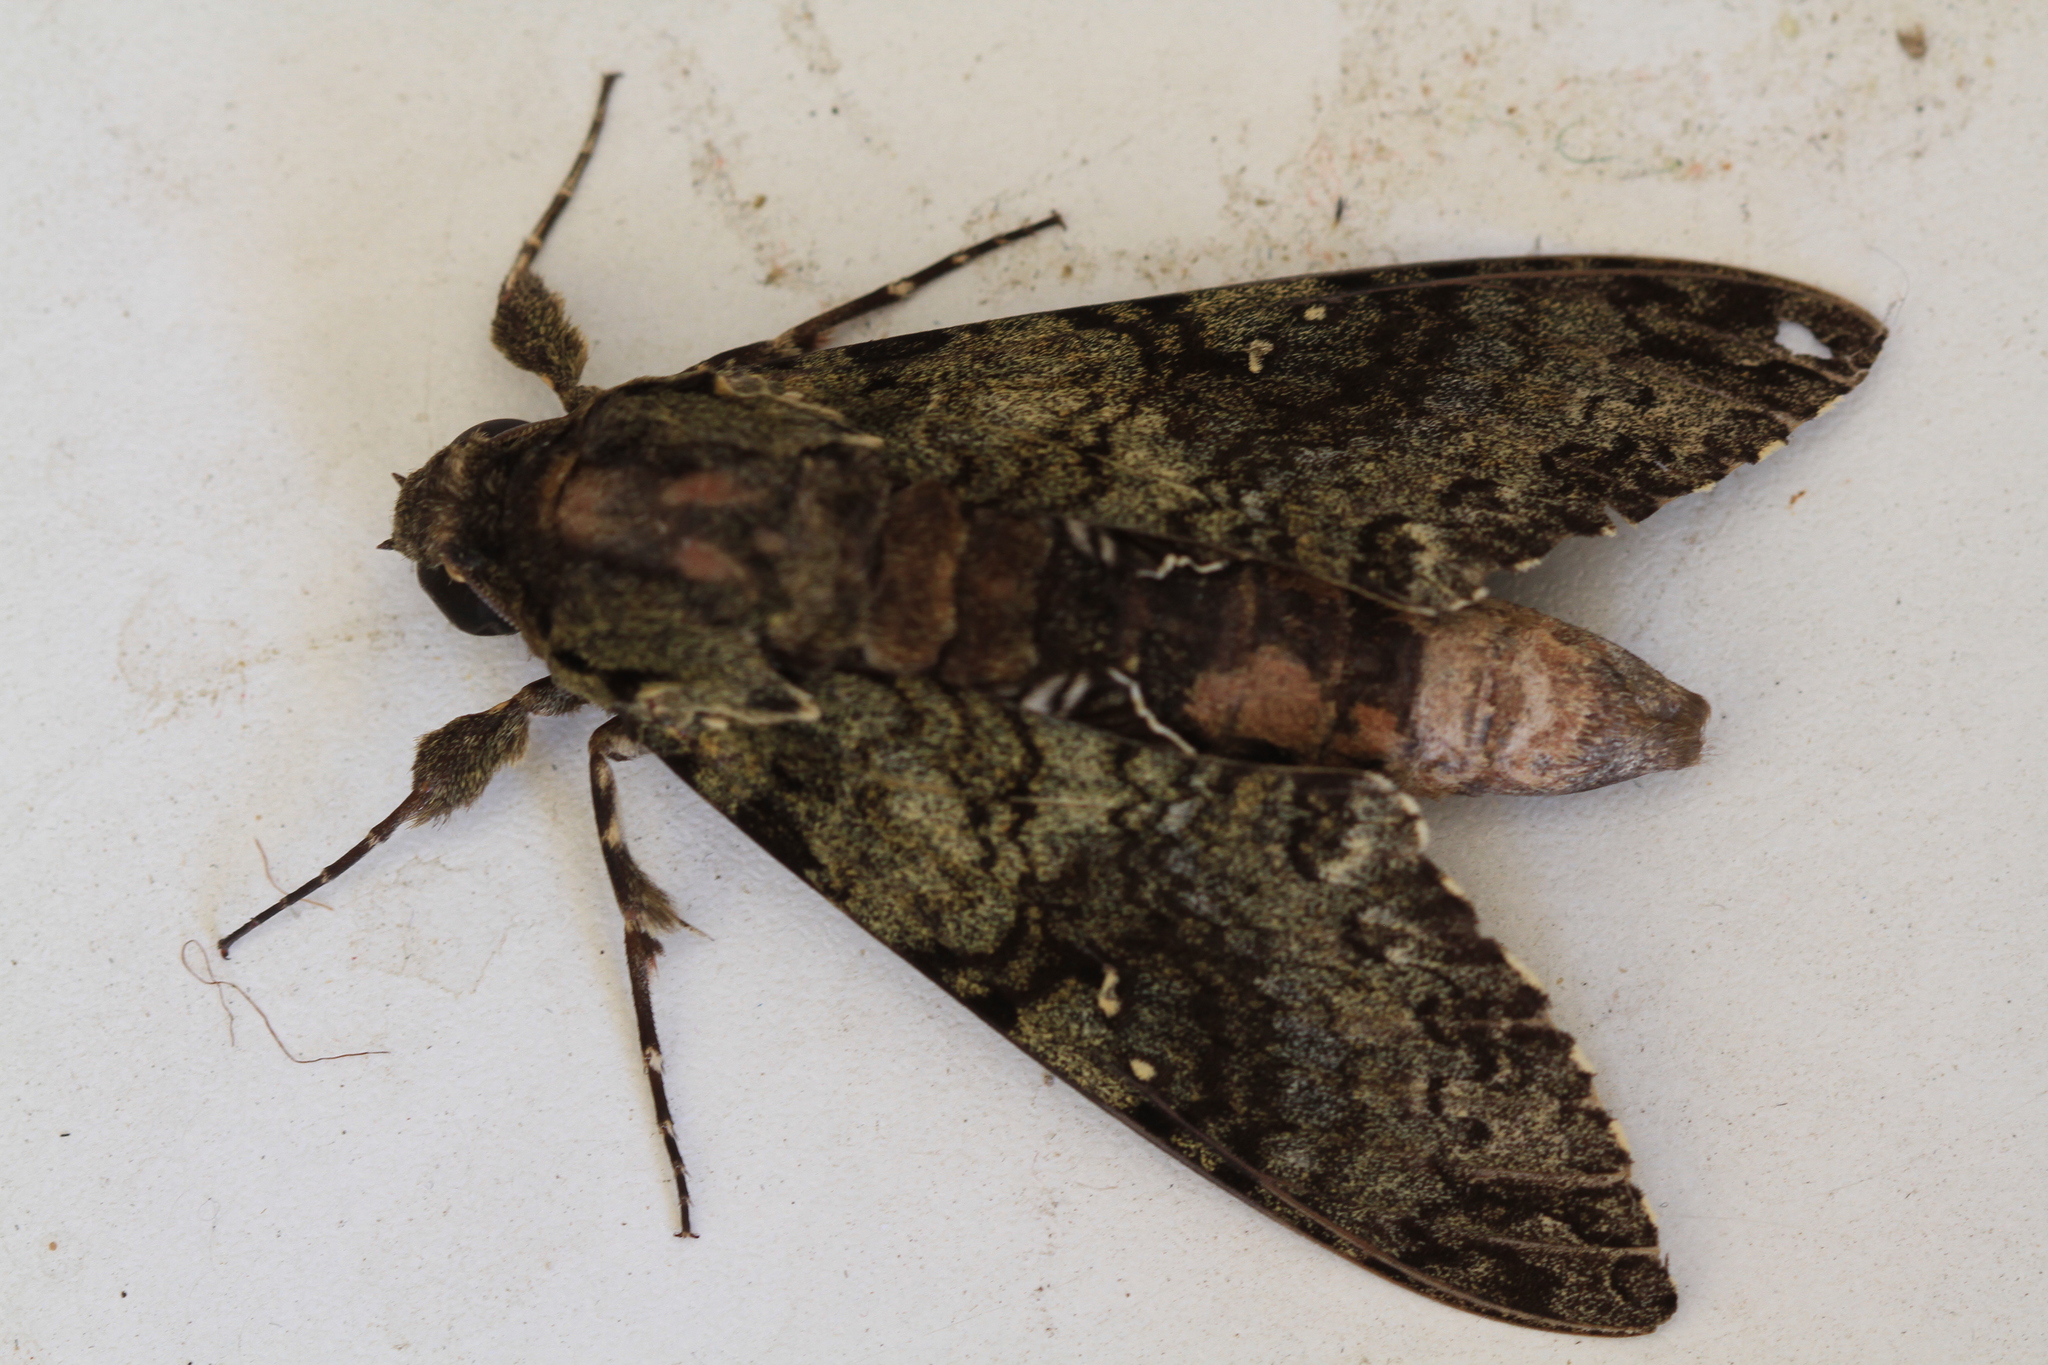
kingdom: Animalia
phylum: Arthropoda
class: Insecta
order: Lepidoptera
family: Sphingidae
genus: Cocytius
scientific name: Cocytius duponchel
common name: Duponchel's sphinx
